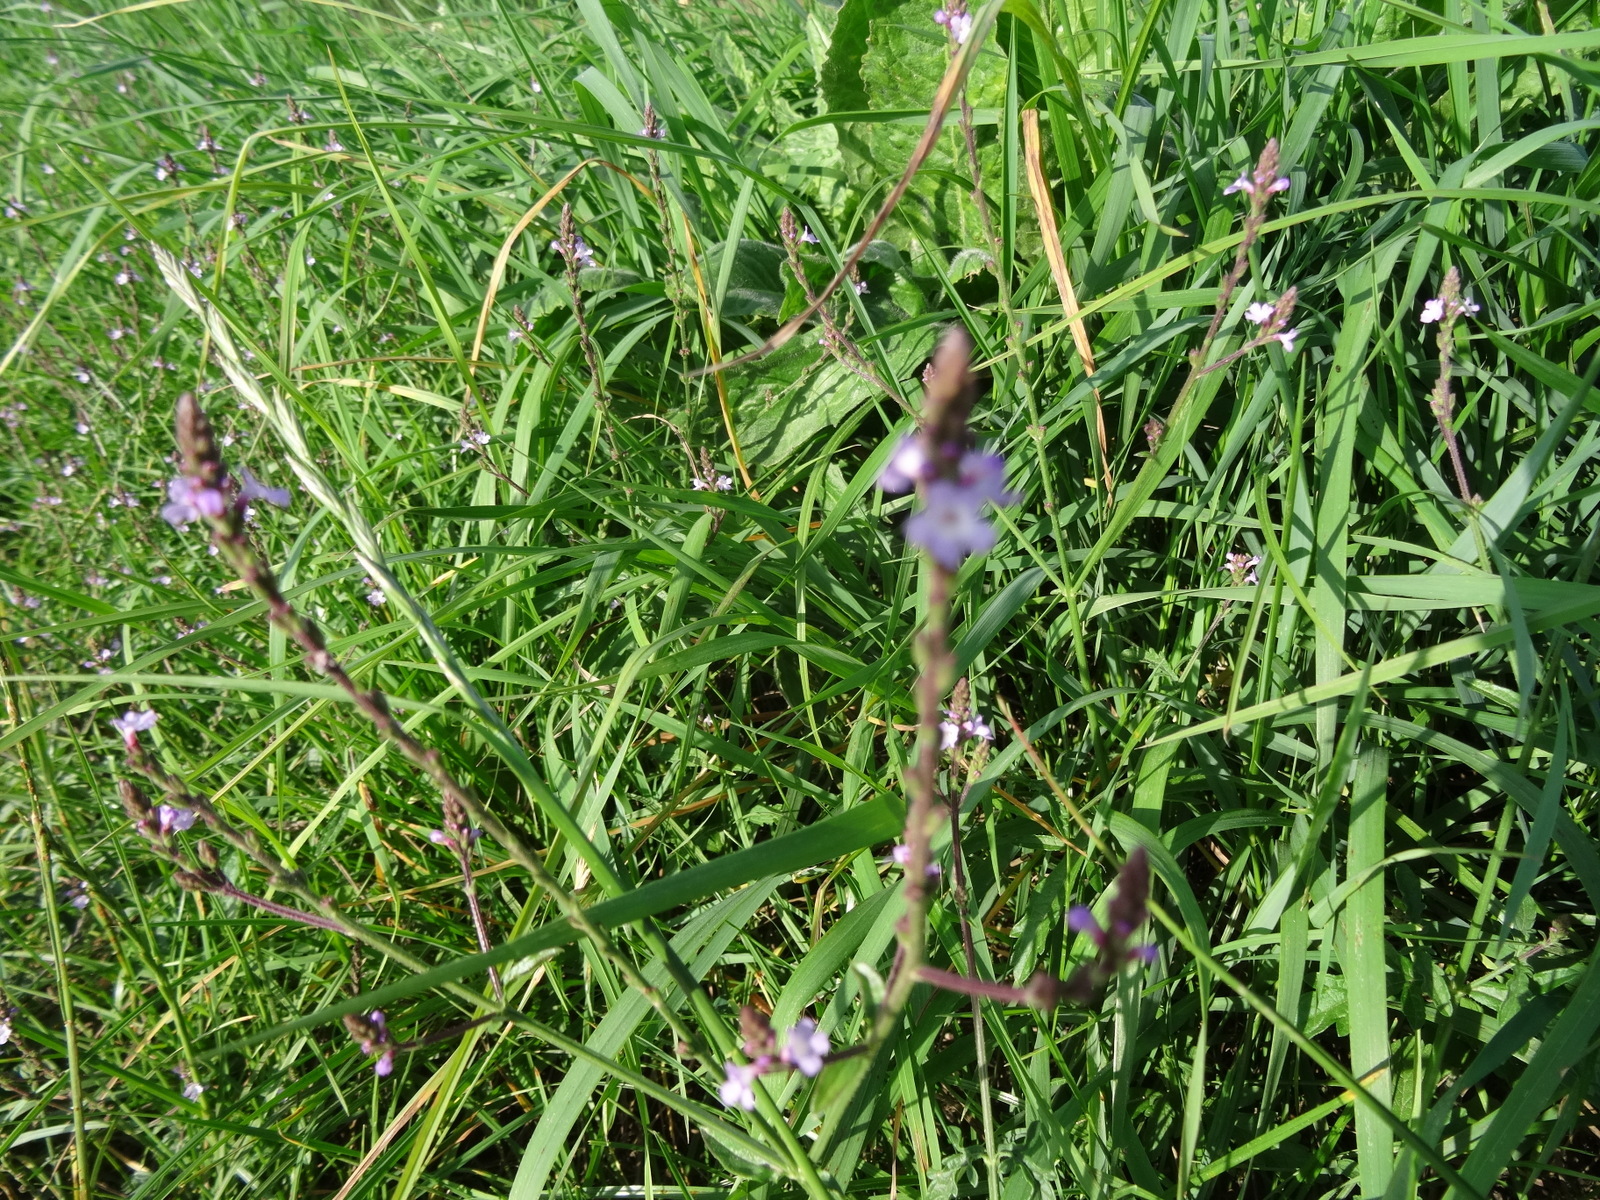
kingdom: Plantae
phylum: Tracheophyta
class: Magnoliopsida
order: Lamiales
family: Verbenaceae
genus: Verbena
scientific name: Verbena officinalis
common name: Vervain
